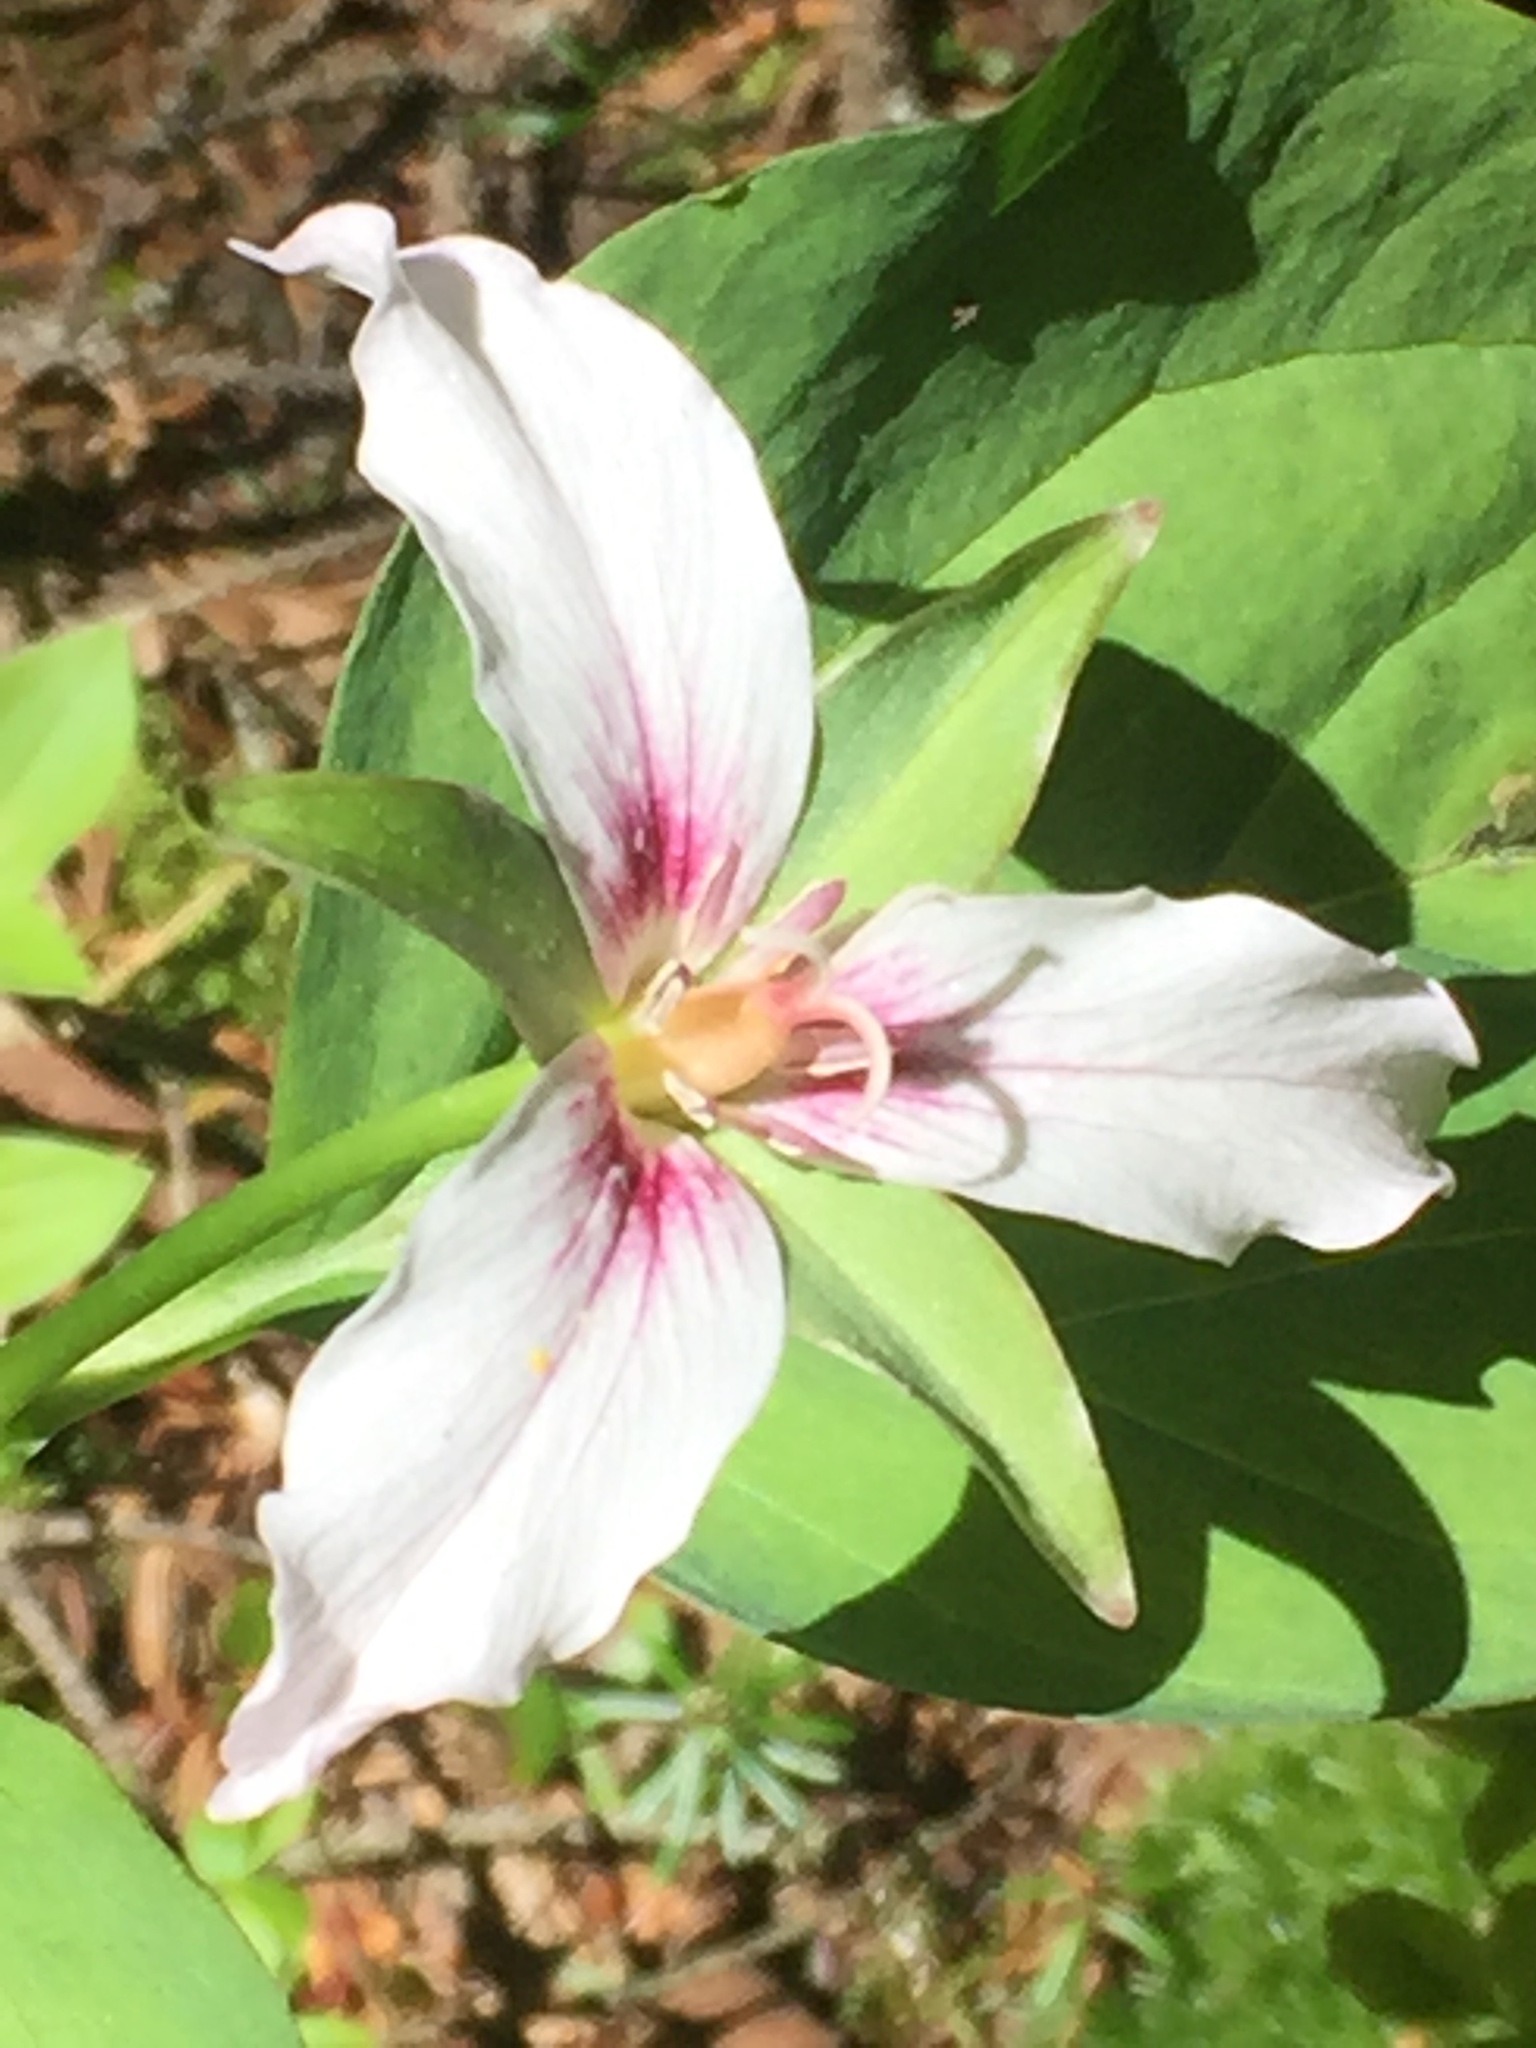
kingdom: Plantae
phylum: Tracheophyta
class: Liliopsida
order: Liliales
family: Melanthiaceae
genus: Trillium
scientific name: Trillium undulatum
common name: Paint trillium
